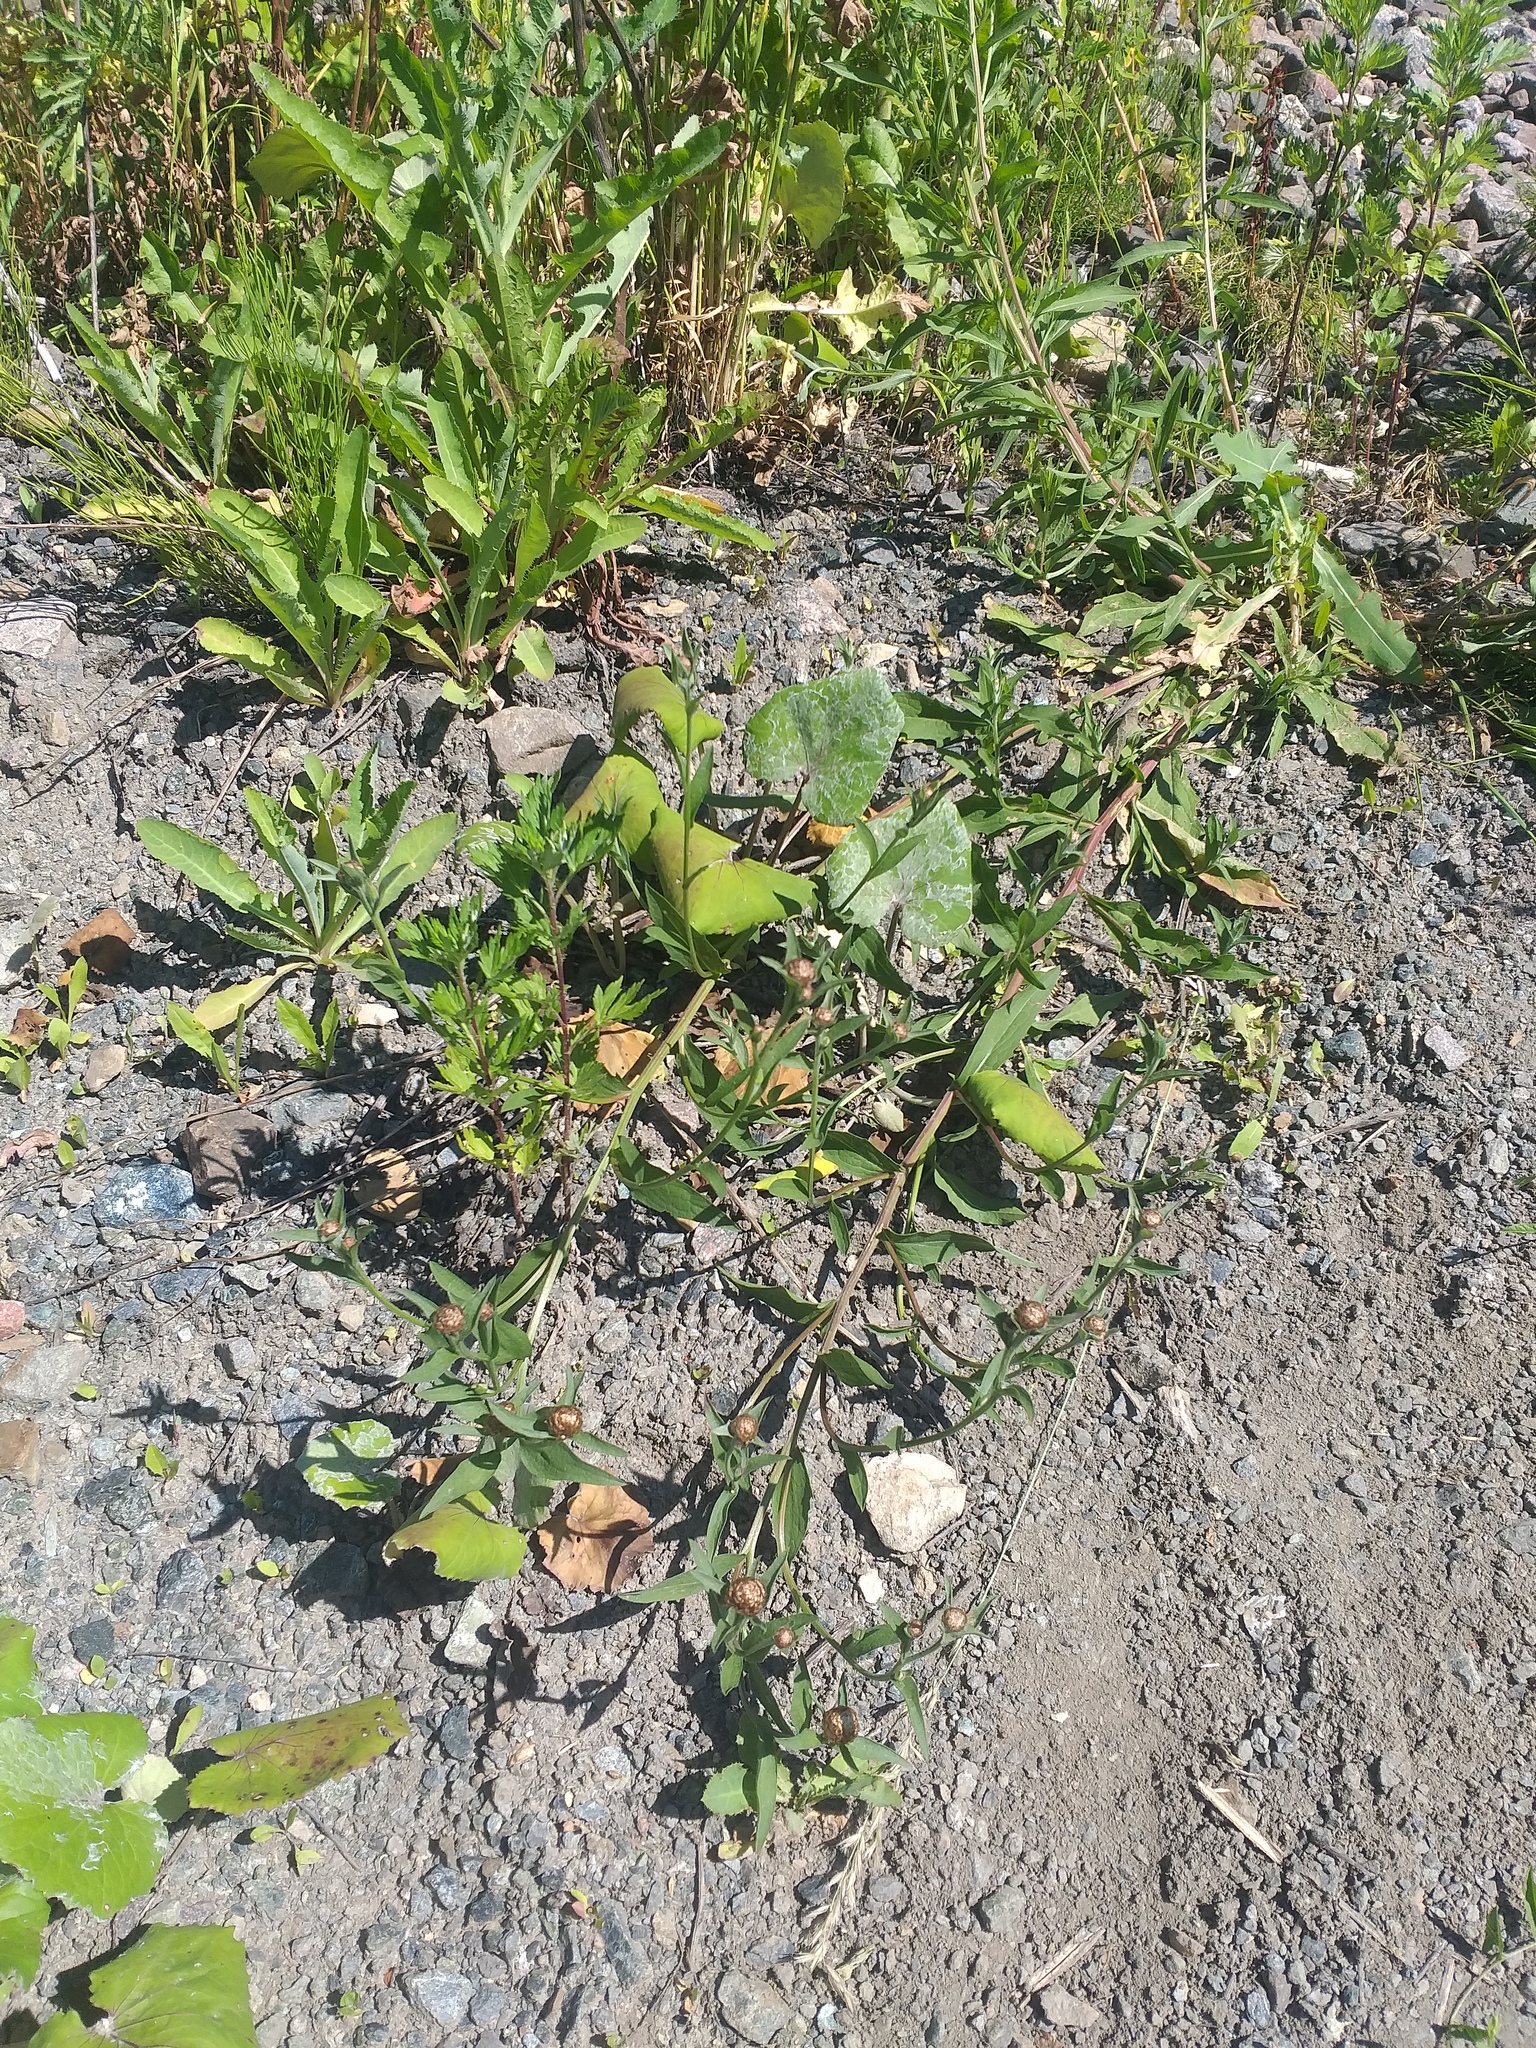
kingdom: Plantae
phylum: Tracheophyta
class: Magnoliopsida
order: Asterales
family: Asteraceae
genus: Centaurea
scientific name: Centaurea jacea
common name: Brown knapweed
